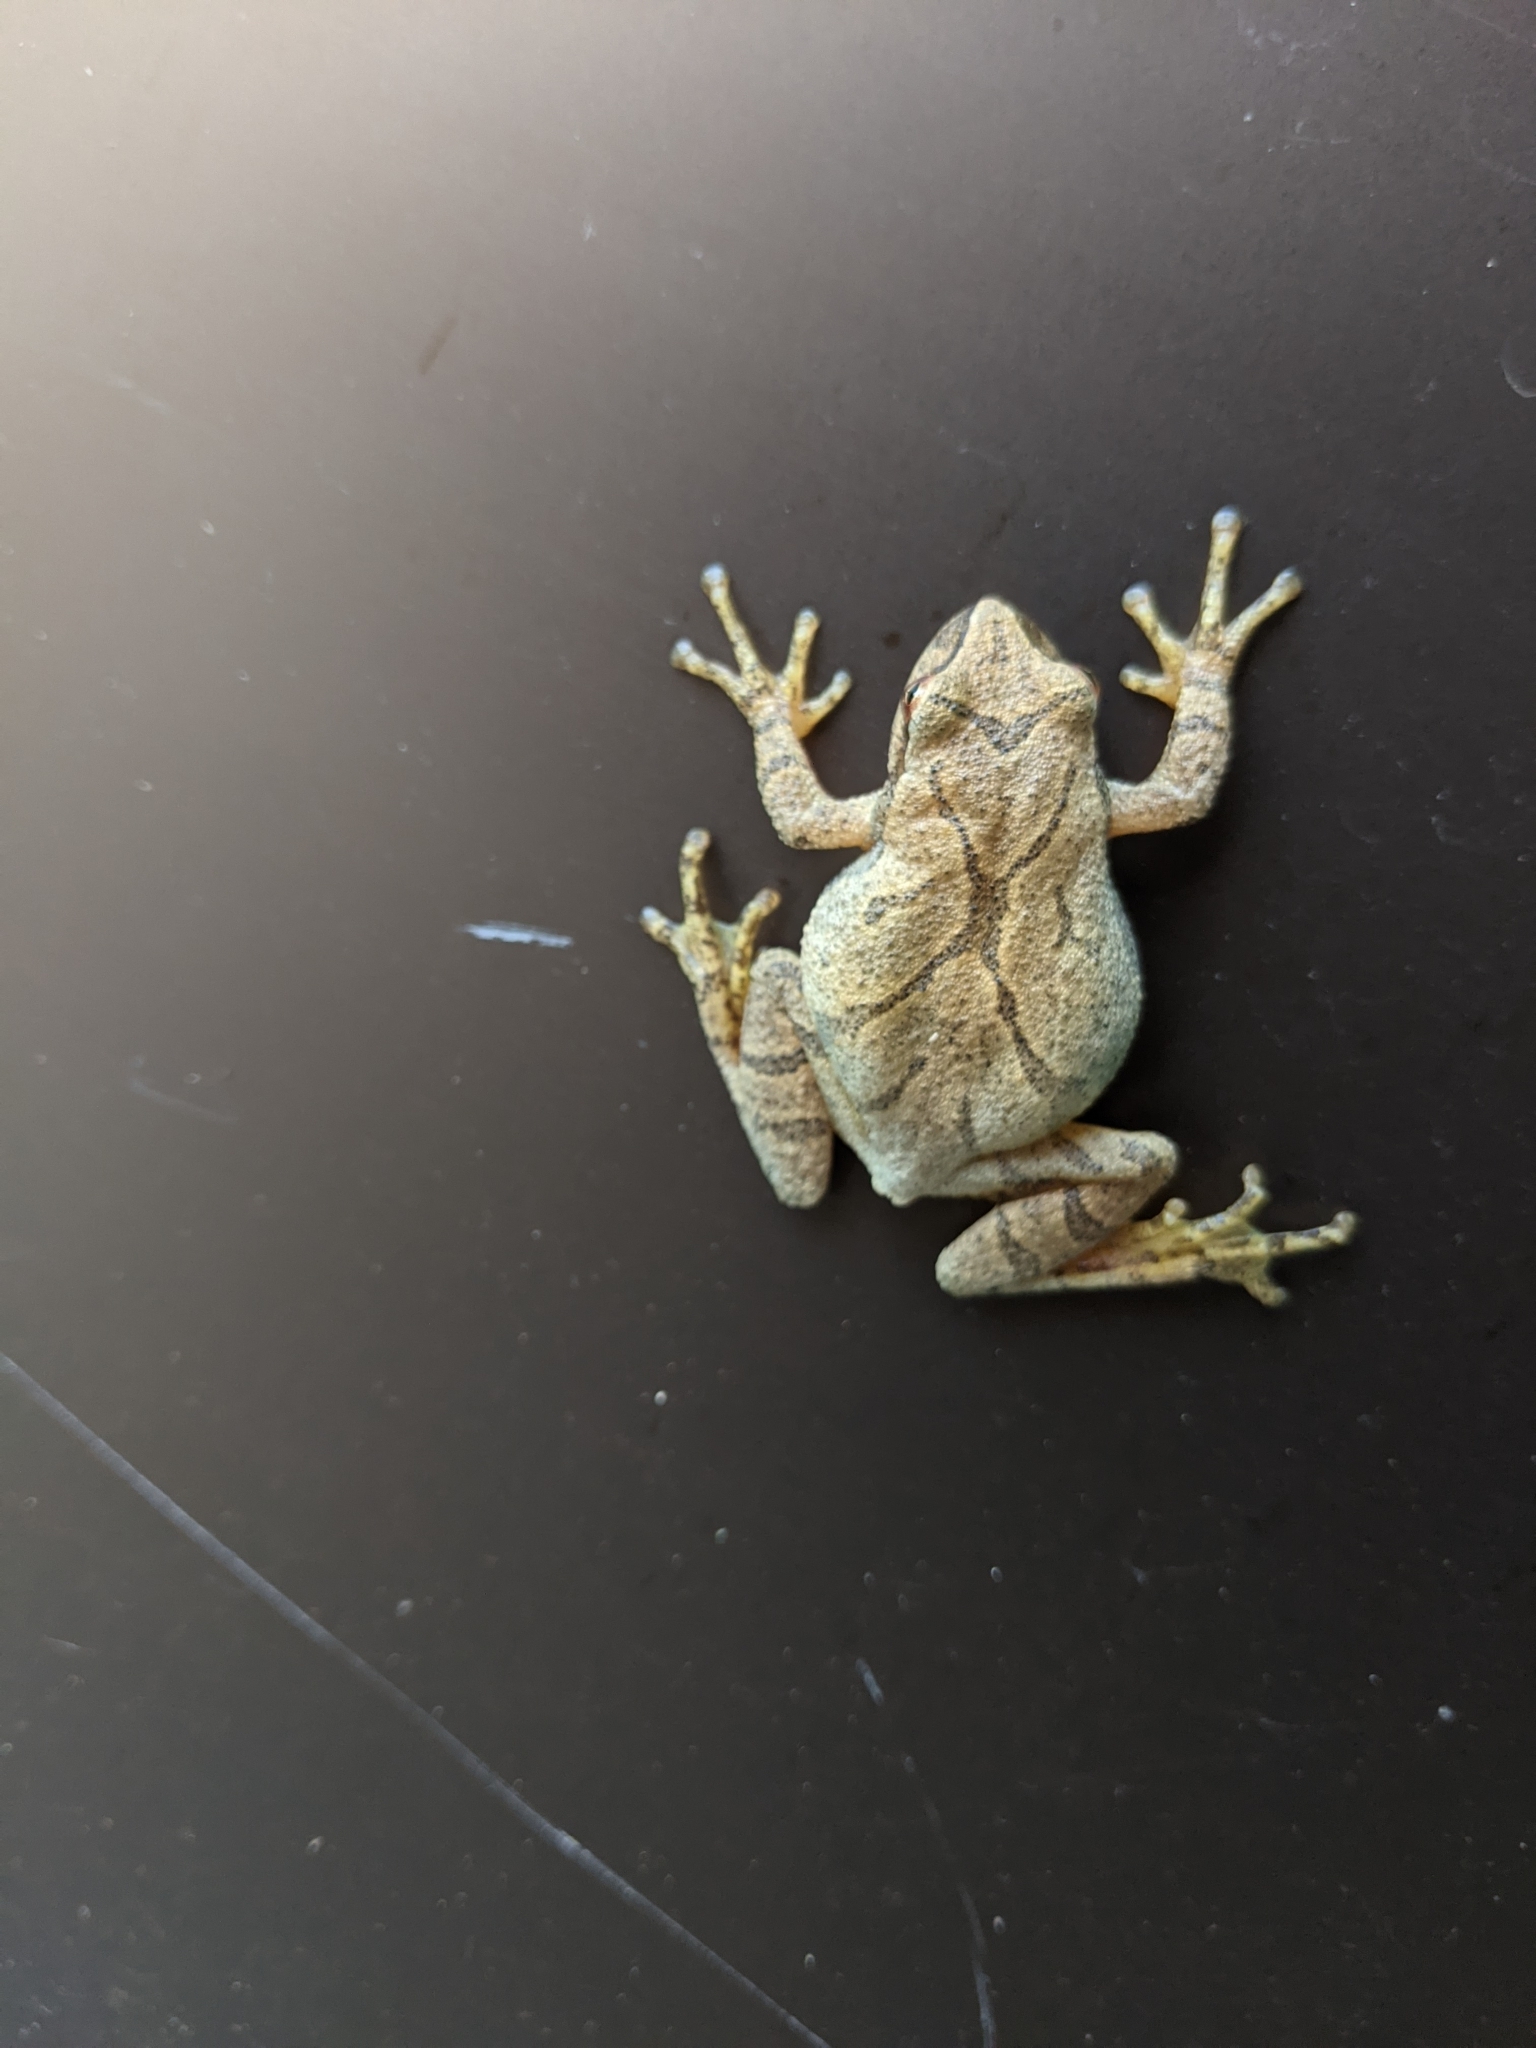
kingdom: Animalia
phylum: Chordata
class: Amphibia
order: Anura
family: Hylidae
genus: Pseudacris
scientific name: Pseudacris crucifer
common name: Spring peeper
